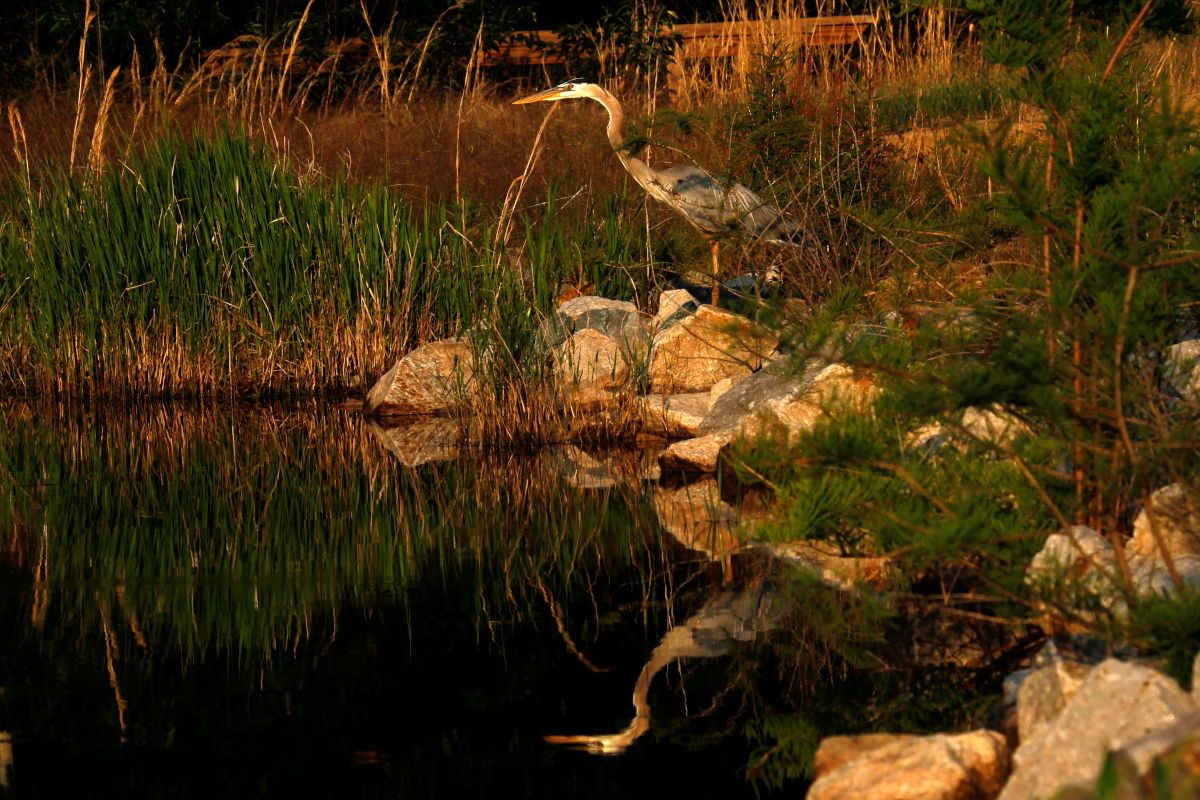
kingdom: Animalia
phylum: Chordata
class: Aves
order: Pelecaniformes
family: Ardeidae
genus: Ardea
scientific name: Ardea herodias
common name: Great blue heron
